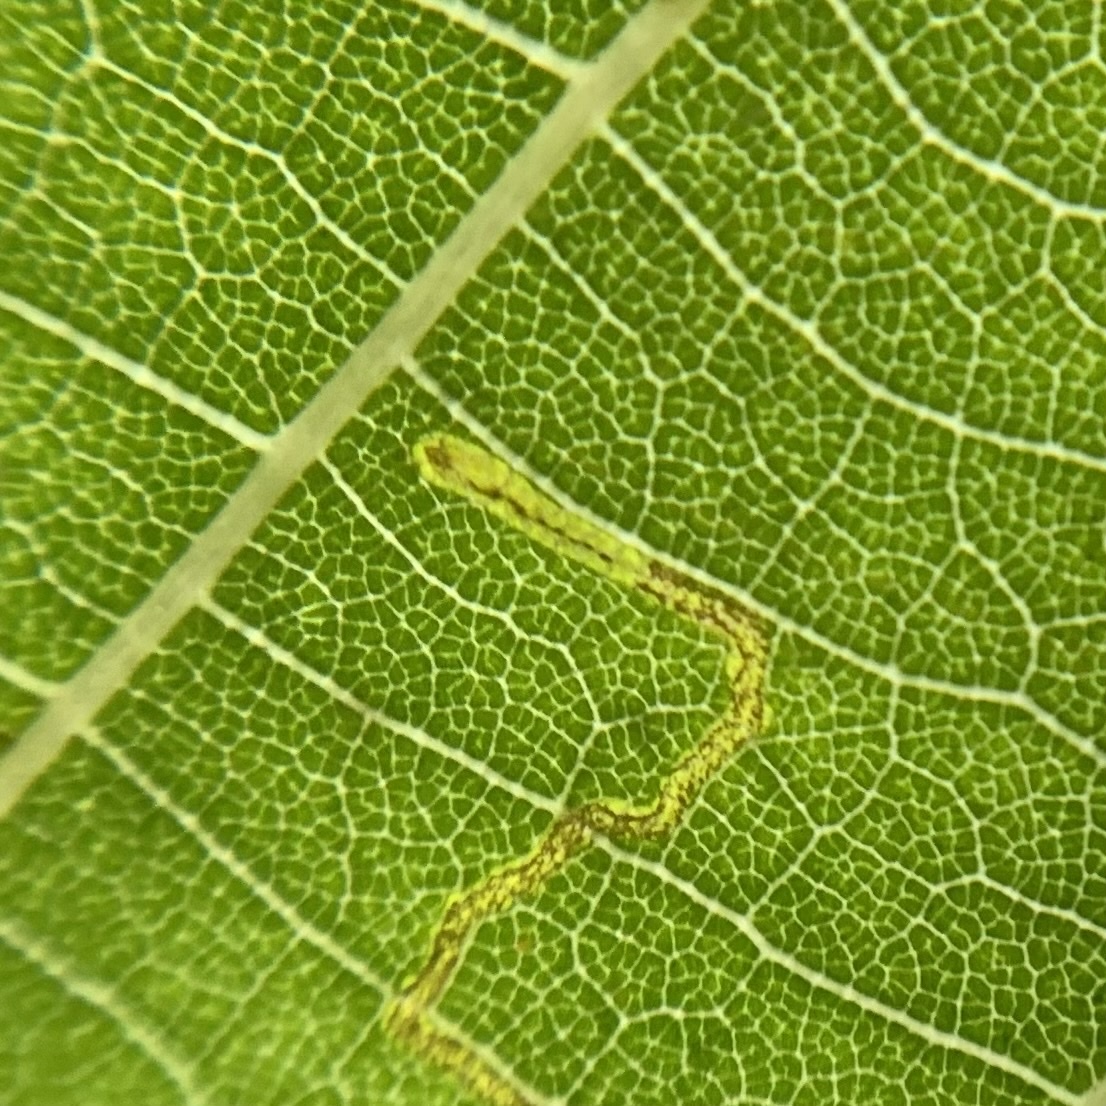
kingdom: Animalia
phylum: Arthropoda
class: Insecta
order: Lepidoptera
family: Nepticulidae
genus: Stigmella
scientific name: Stigmella argentifasciella
